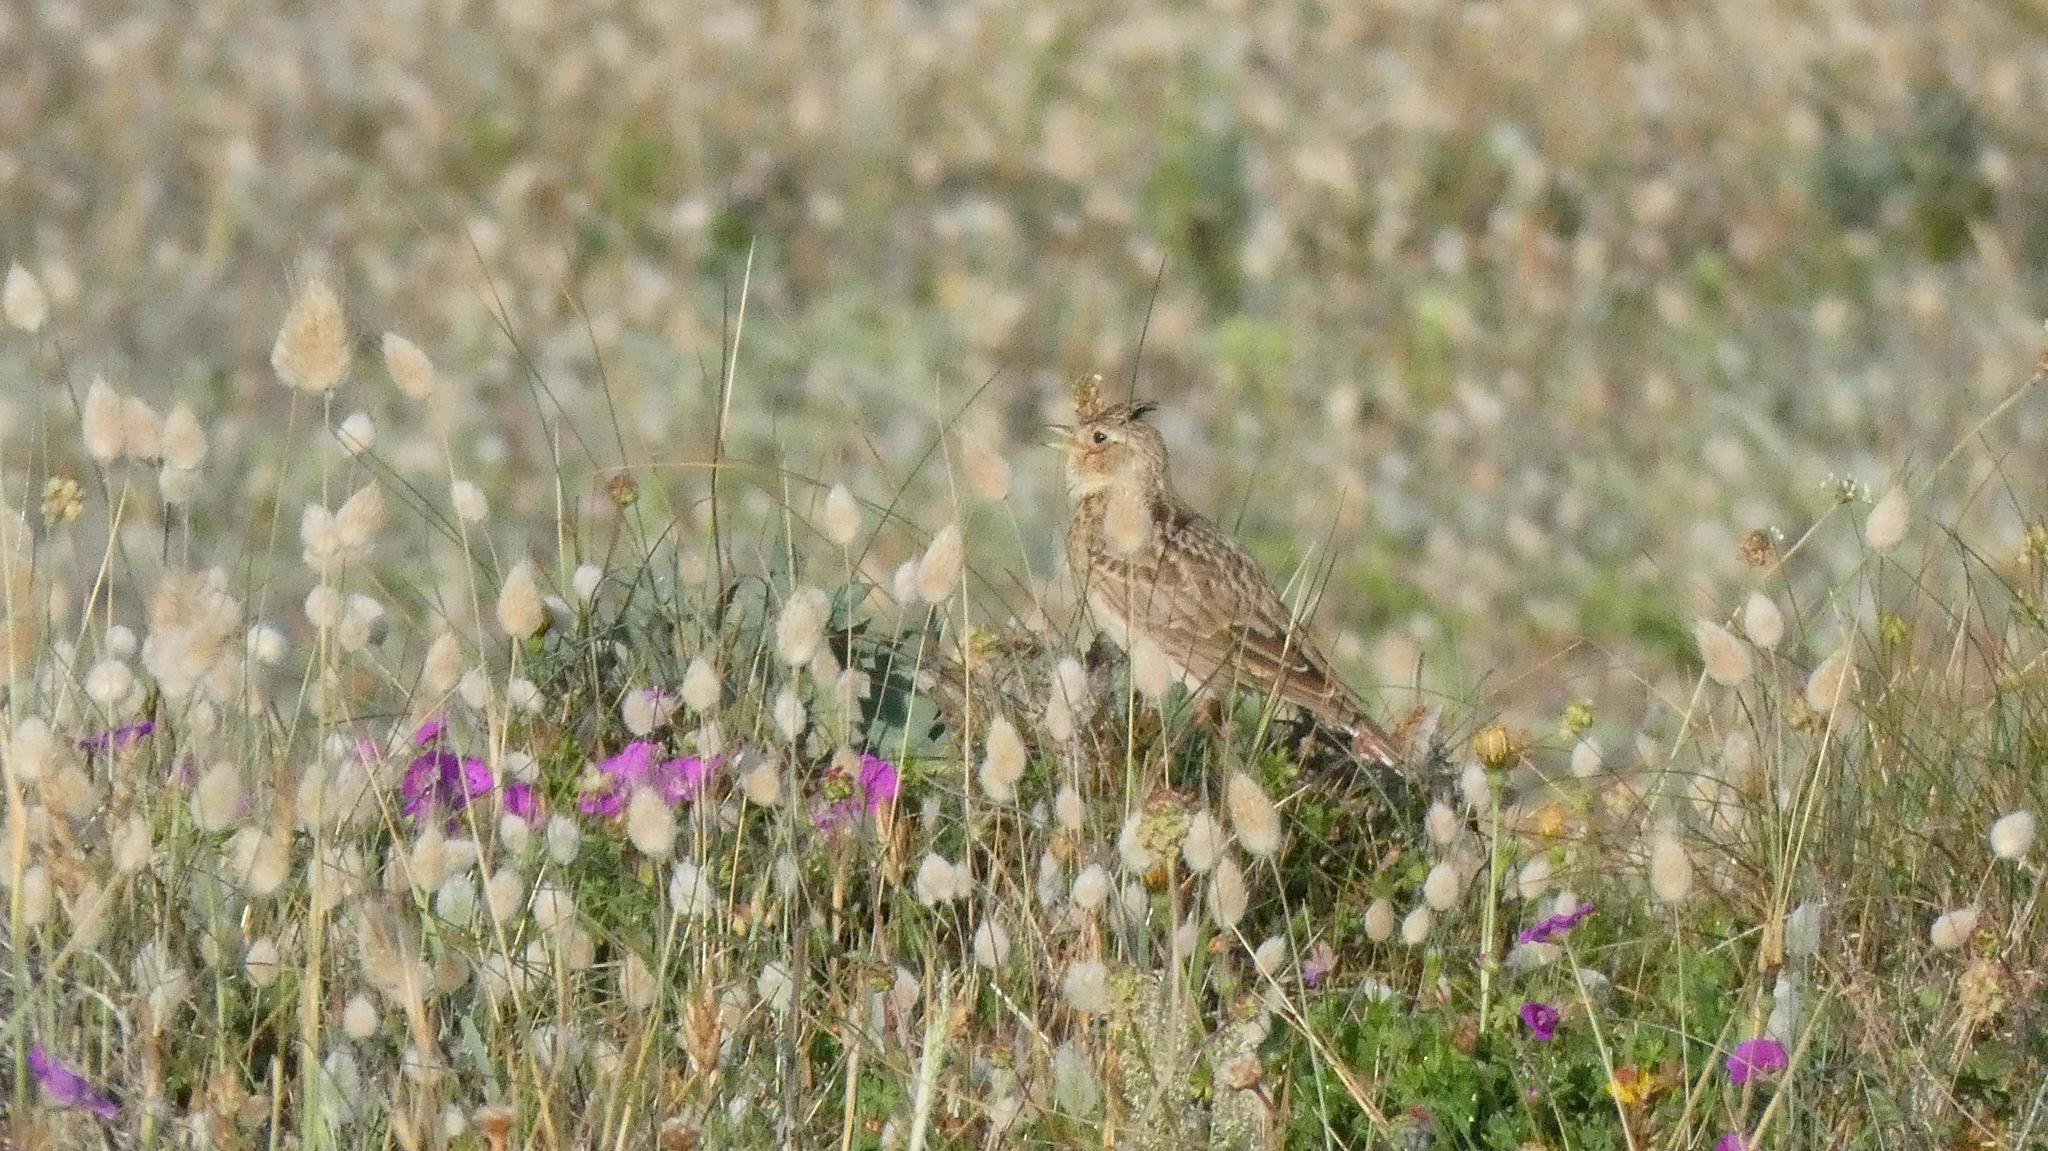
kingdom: Animalia
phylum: Chordata
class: Aves
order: Passeriformes
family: Alaudidae
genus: Alauda
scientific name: Alauda arvensis
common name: Eurasian skylark
